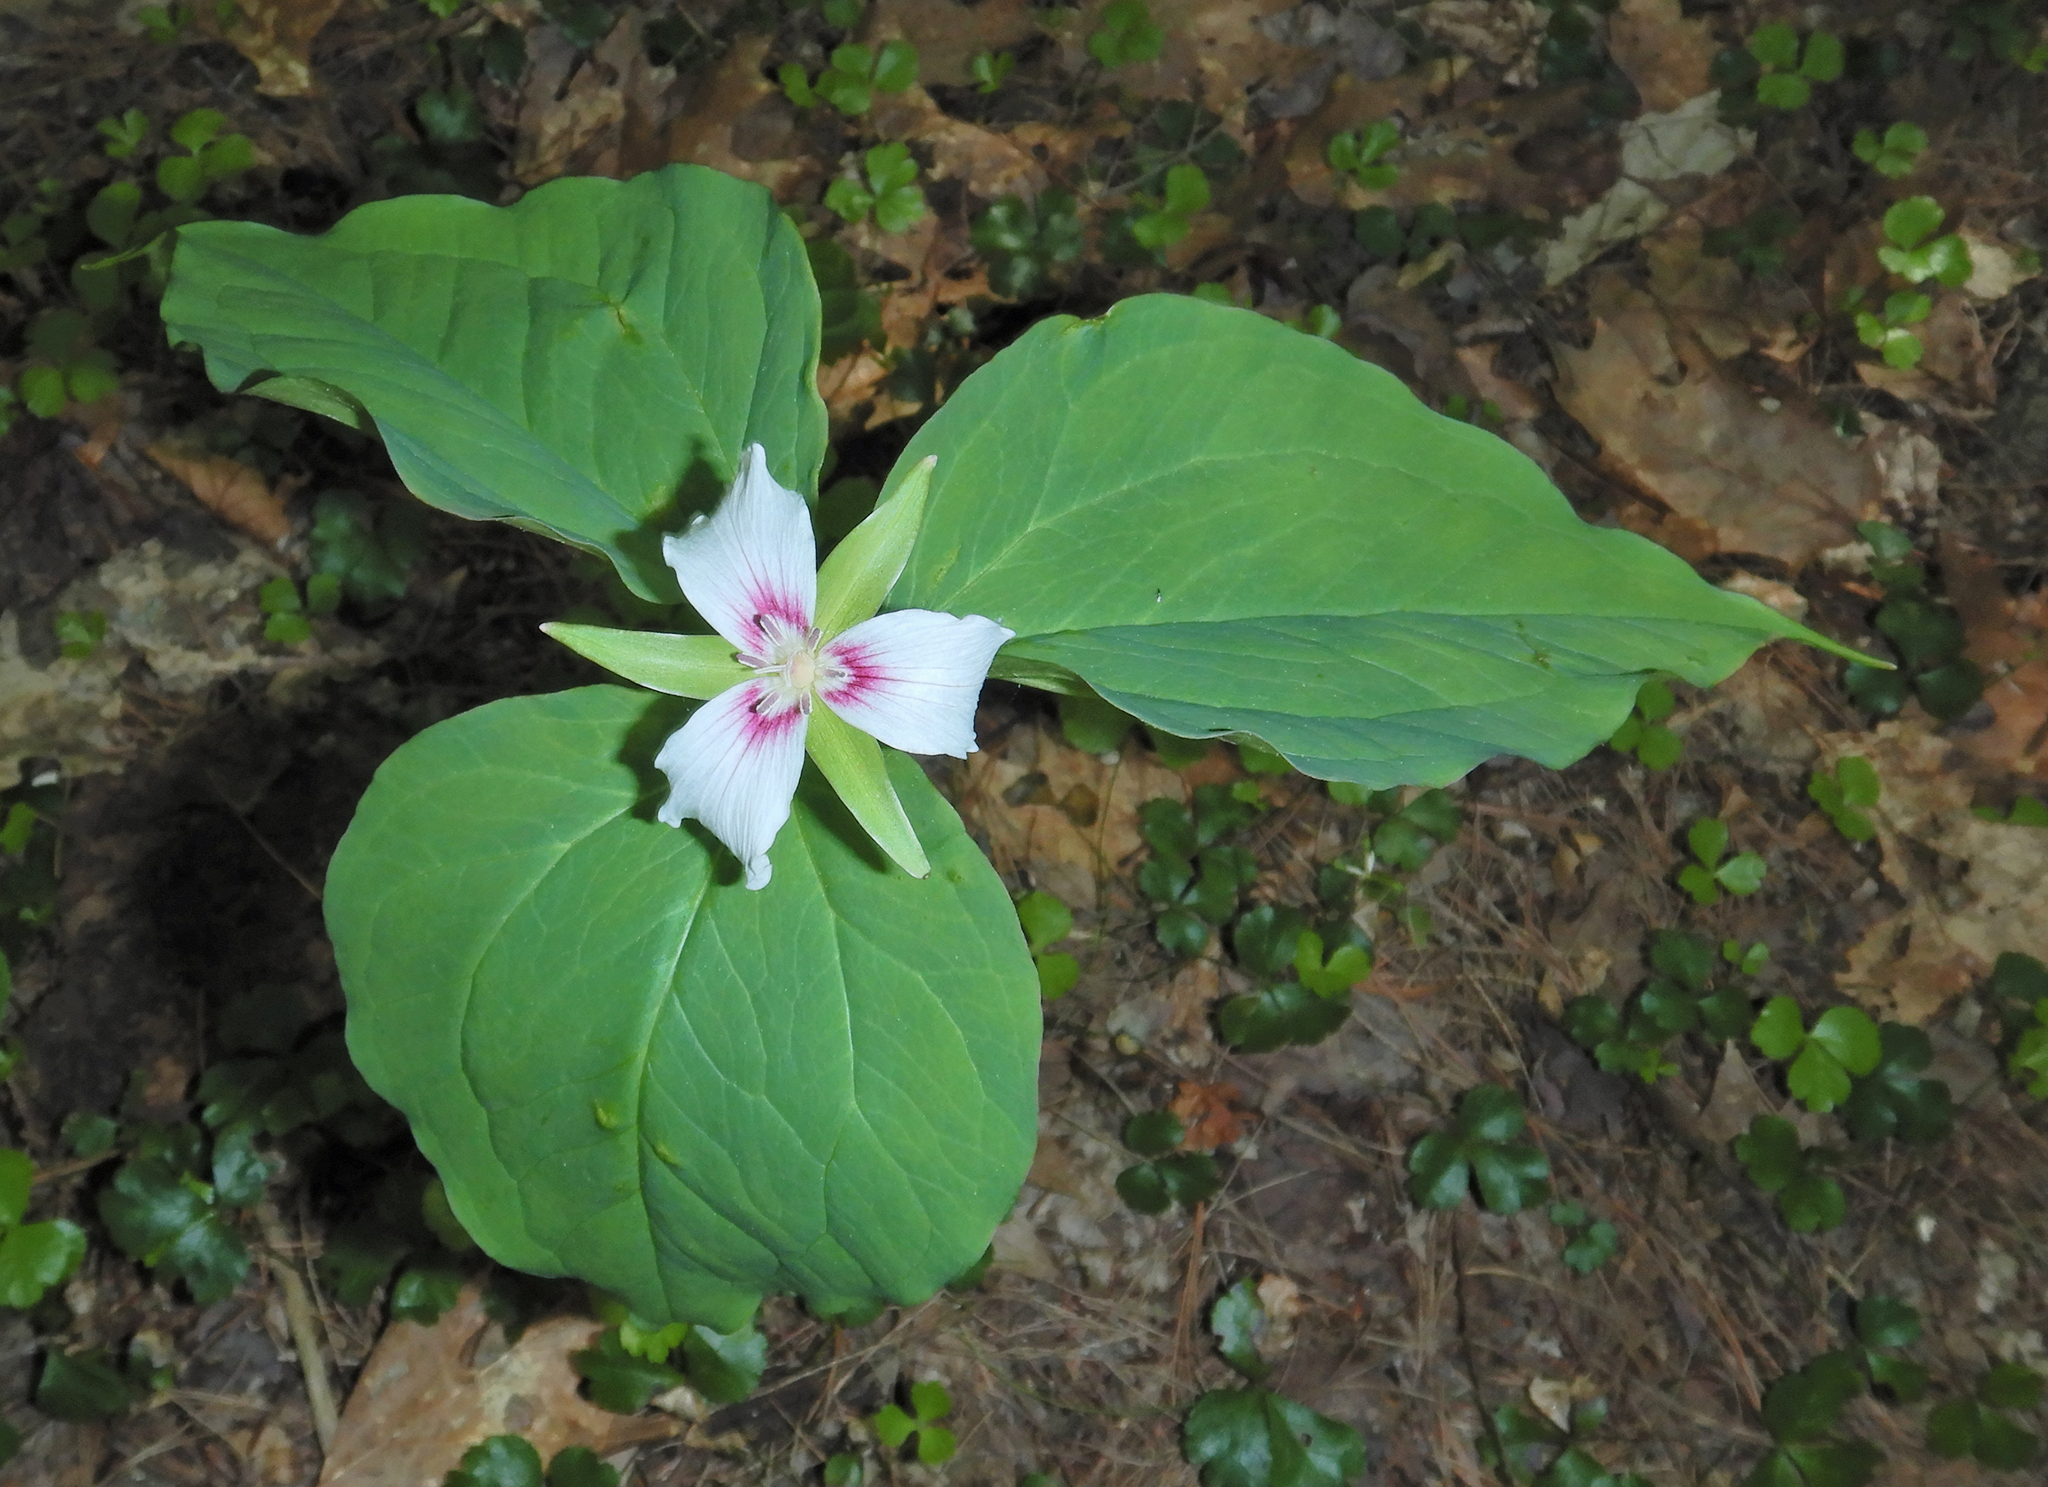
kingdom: Plantae
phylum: Tracheophyta
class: Liliopsida
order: Liliales
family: Melanthiaceae
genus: Trillium
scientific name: Trillium undulatum
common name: Paint trillium
